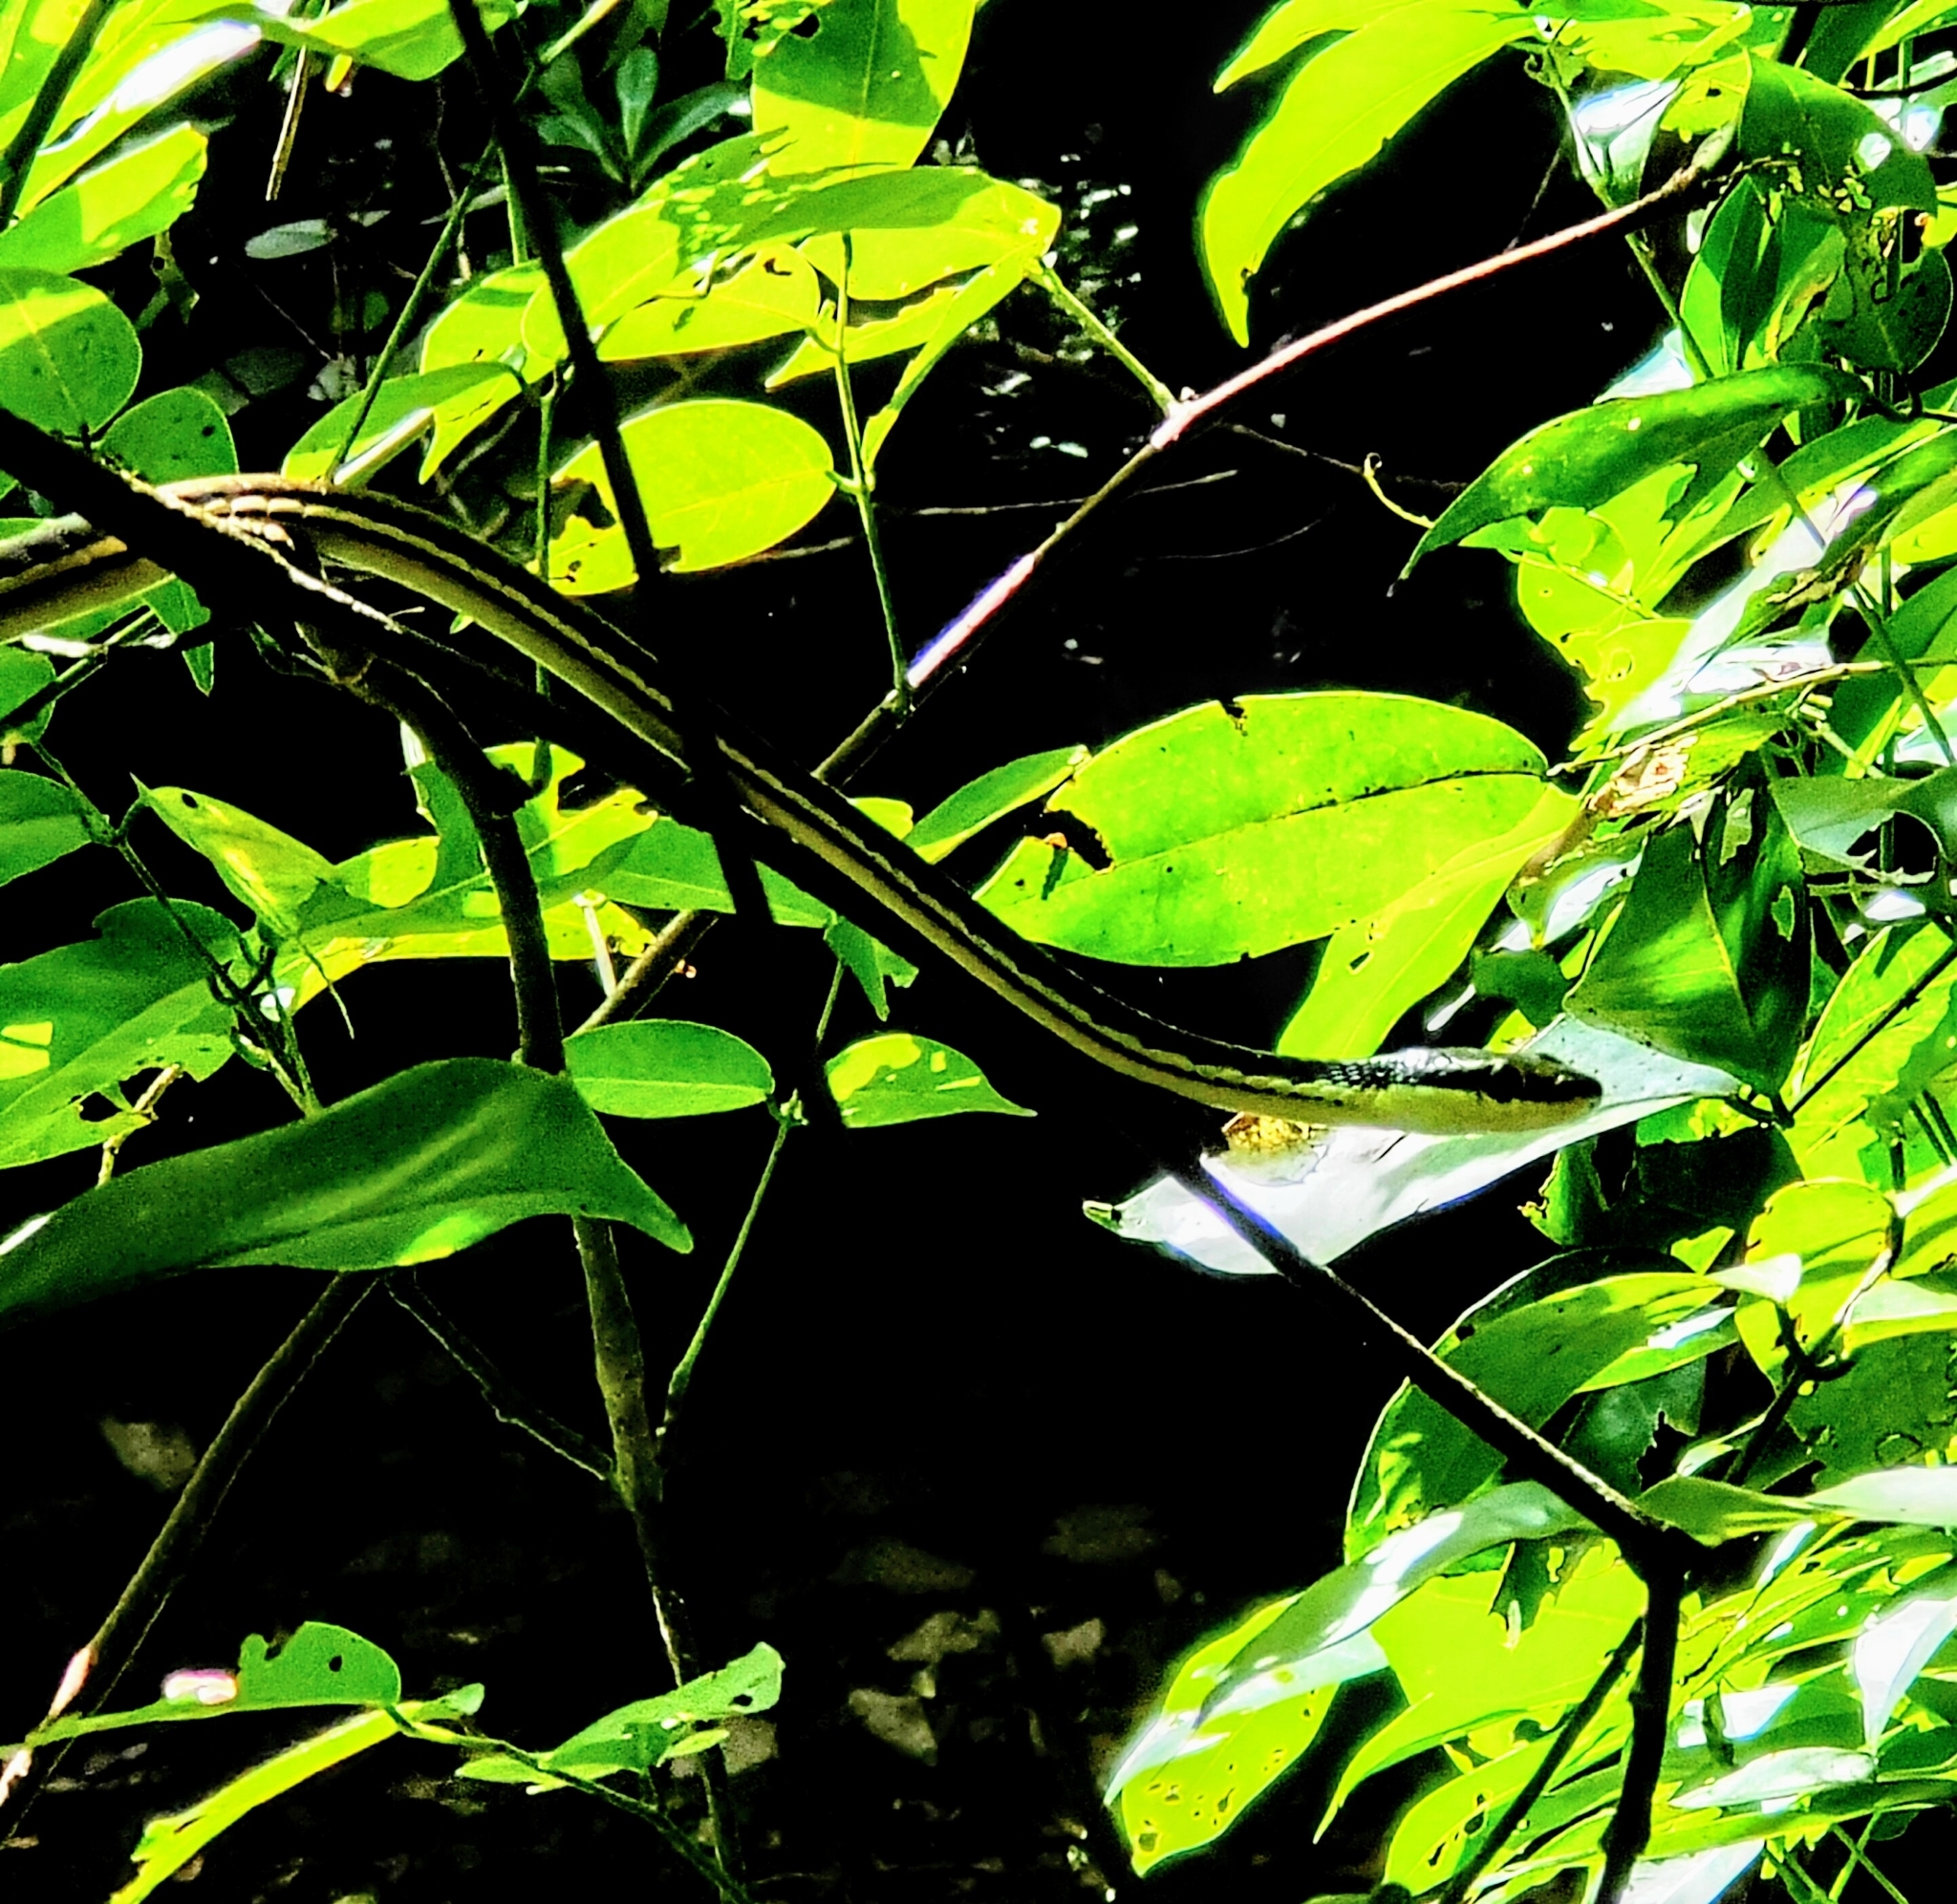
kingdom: Animalia
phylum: Chordata
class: Squamata
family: Colubridae
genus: Dendrelaphis
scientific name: Dendrelaphis caudolineatus
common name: Striped bronzeback
